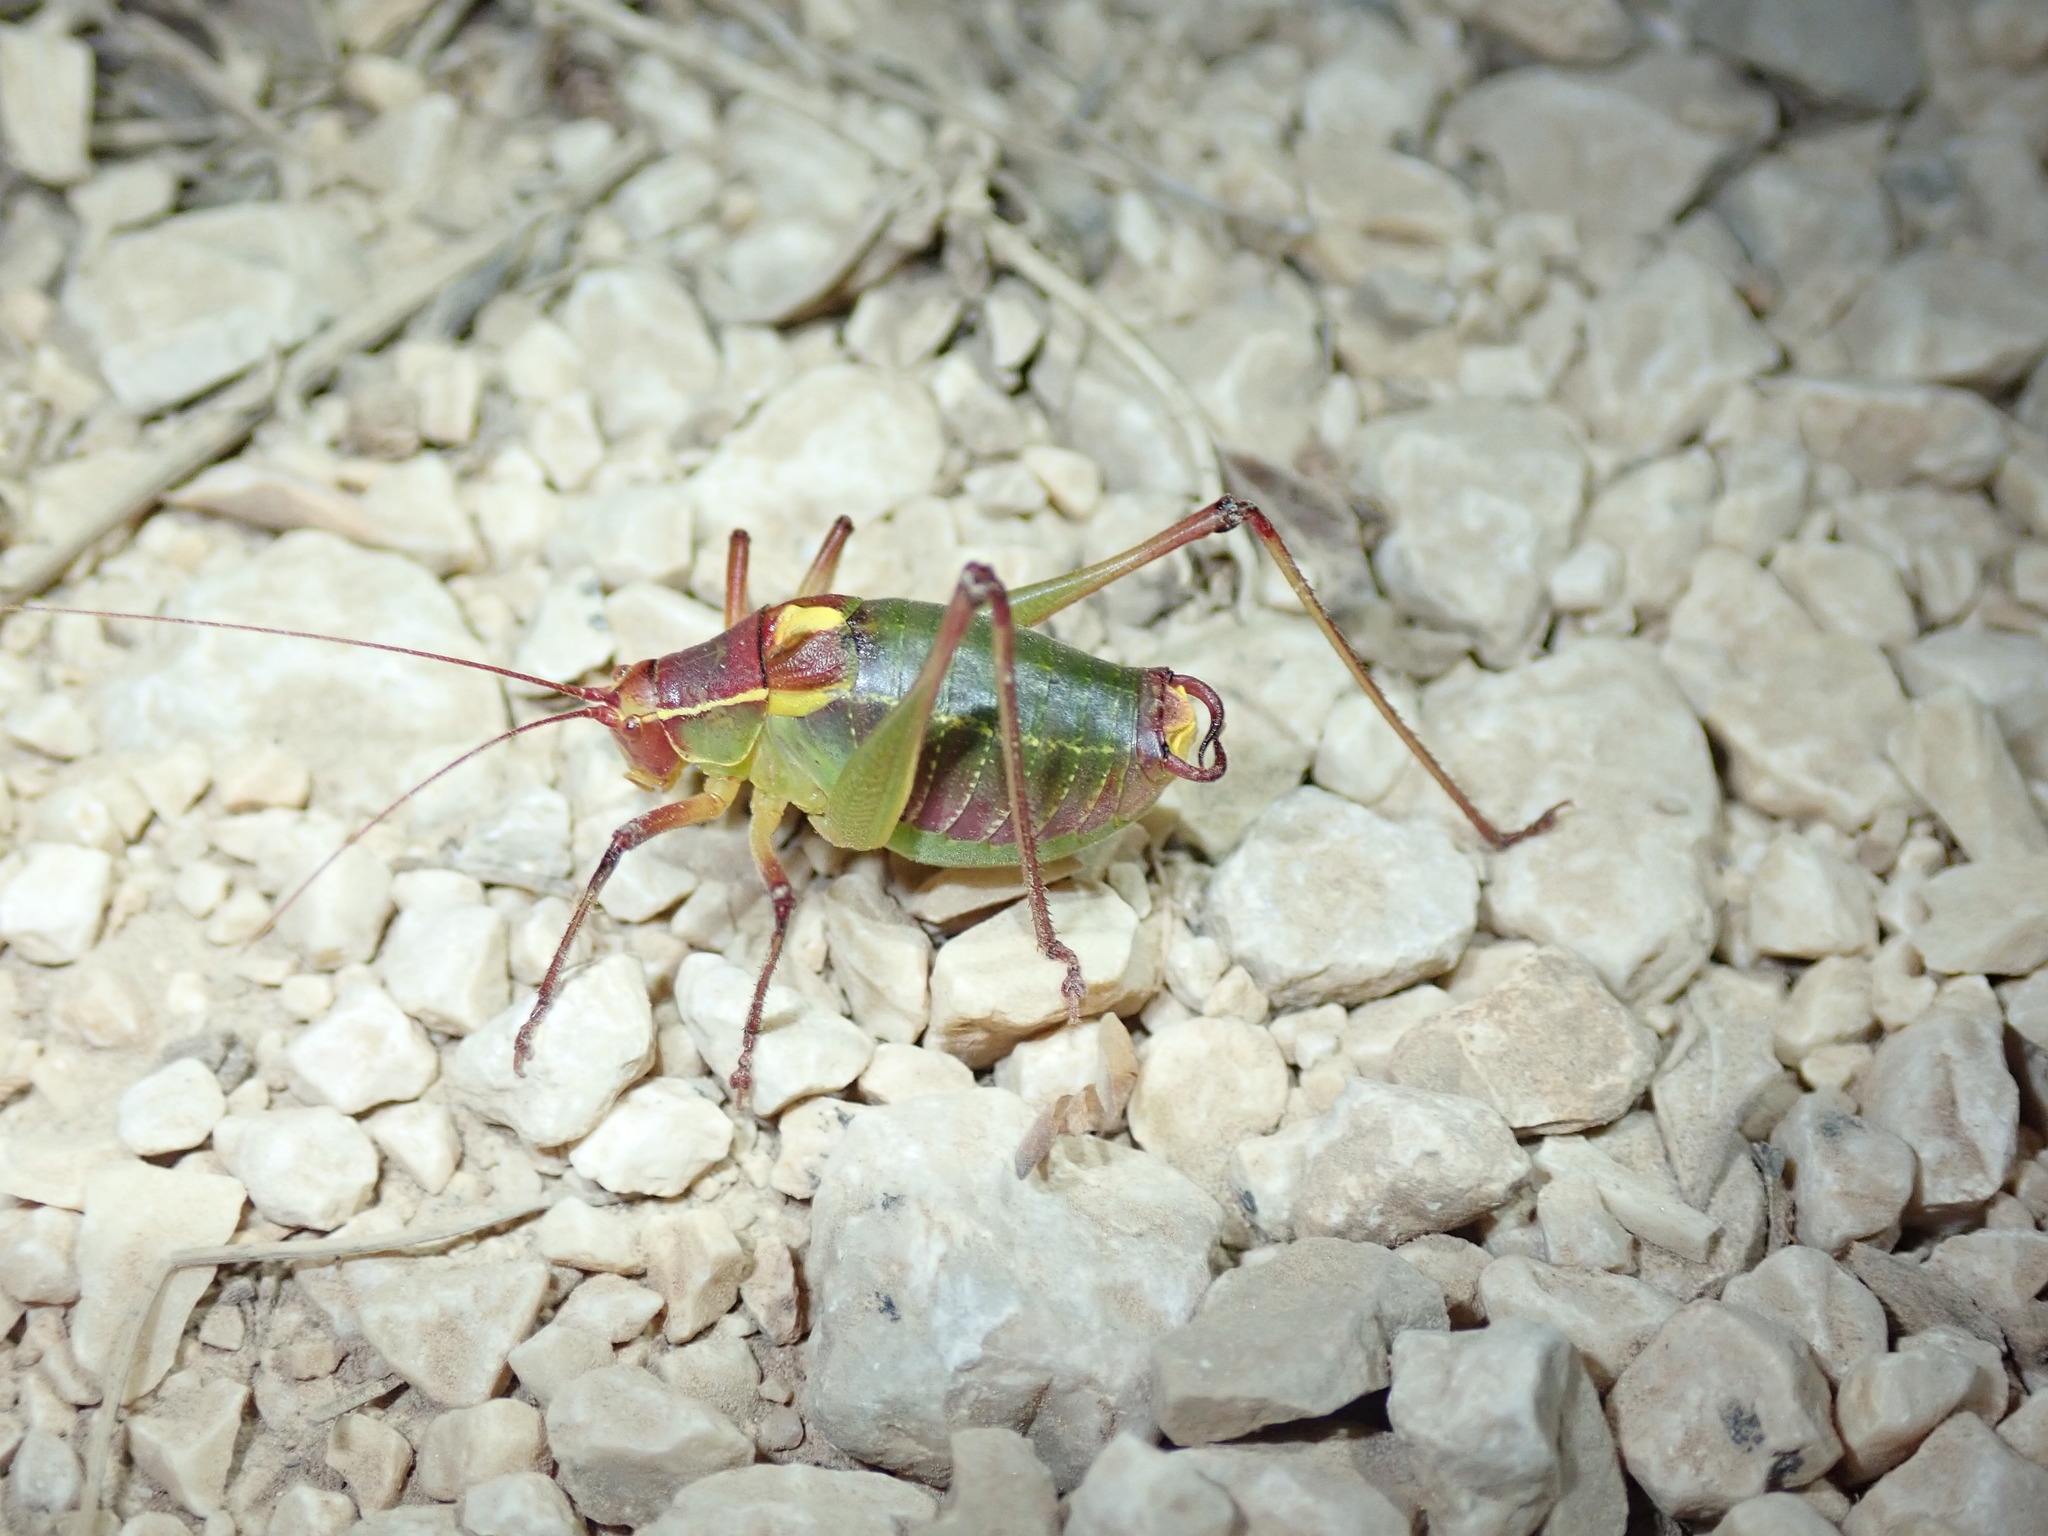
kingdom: Animalia
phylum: Arthropoda
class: Insecta
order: Orthoptera
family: Tettigoniidae
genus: Barbitistes
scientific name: Barbitistes yersini
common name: Balkan saw bush-cricket
